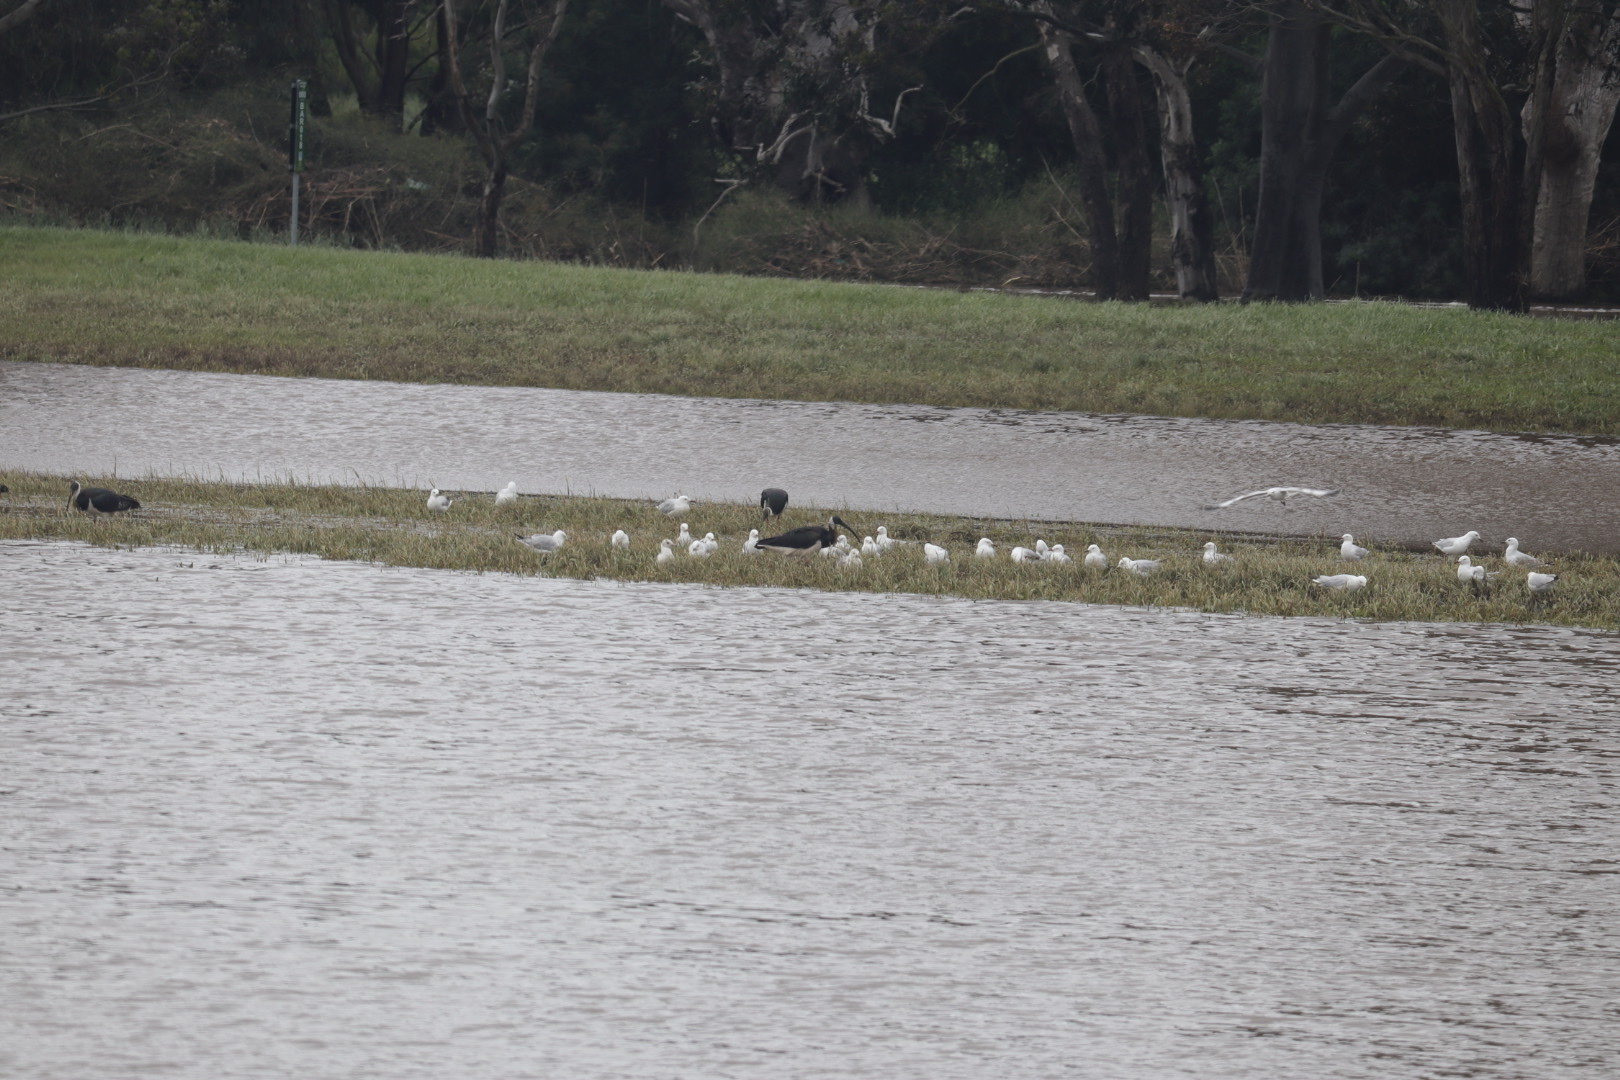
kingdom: Animalia
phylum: Chordata
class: Aves
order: Pelecaniformes
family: Threskiornithidae
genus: Threskiornis
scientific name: Threskiornis spinicollis
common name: Straw-necked ibis
